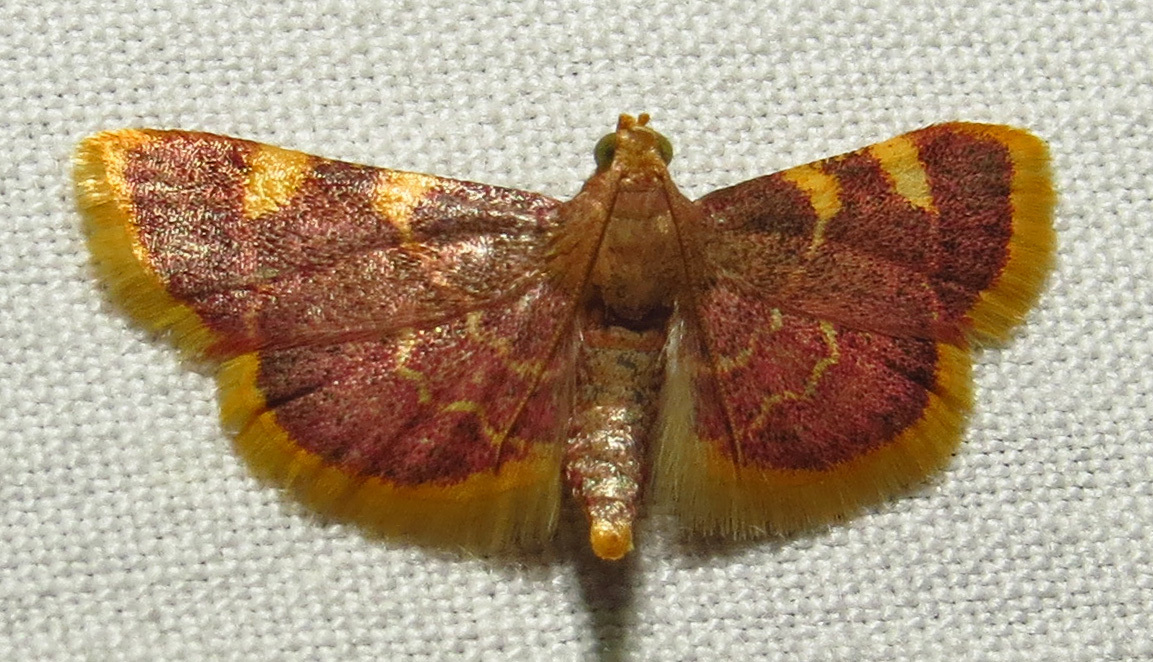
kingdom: Animalia
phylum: Arthropoda
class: Insecta
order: Lepidoptera
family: Pyralidae
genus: Hypsopygia
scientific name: Hypsopygia costalis
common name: Gold triangle
